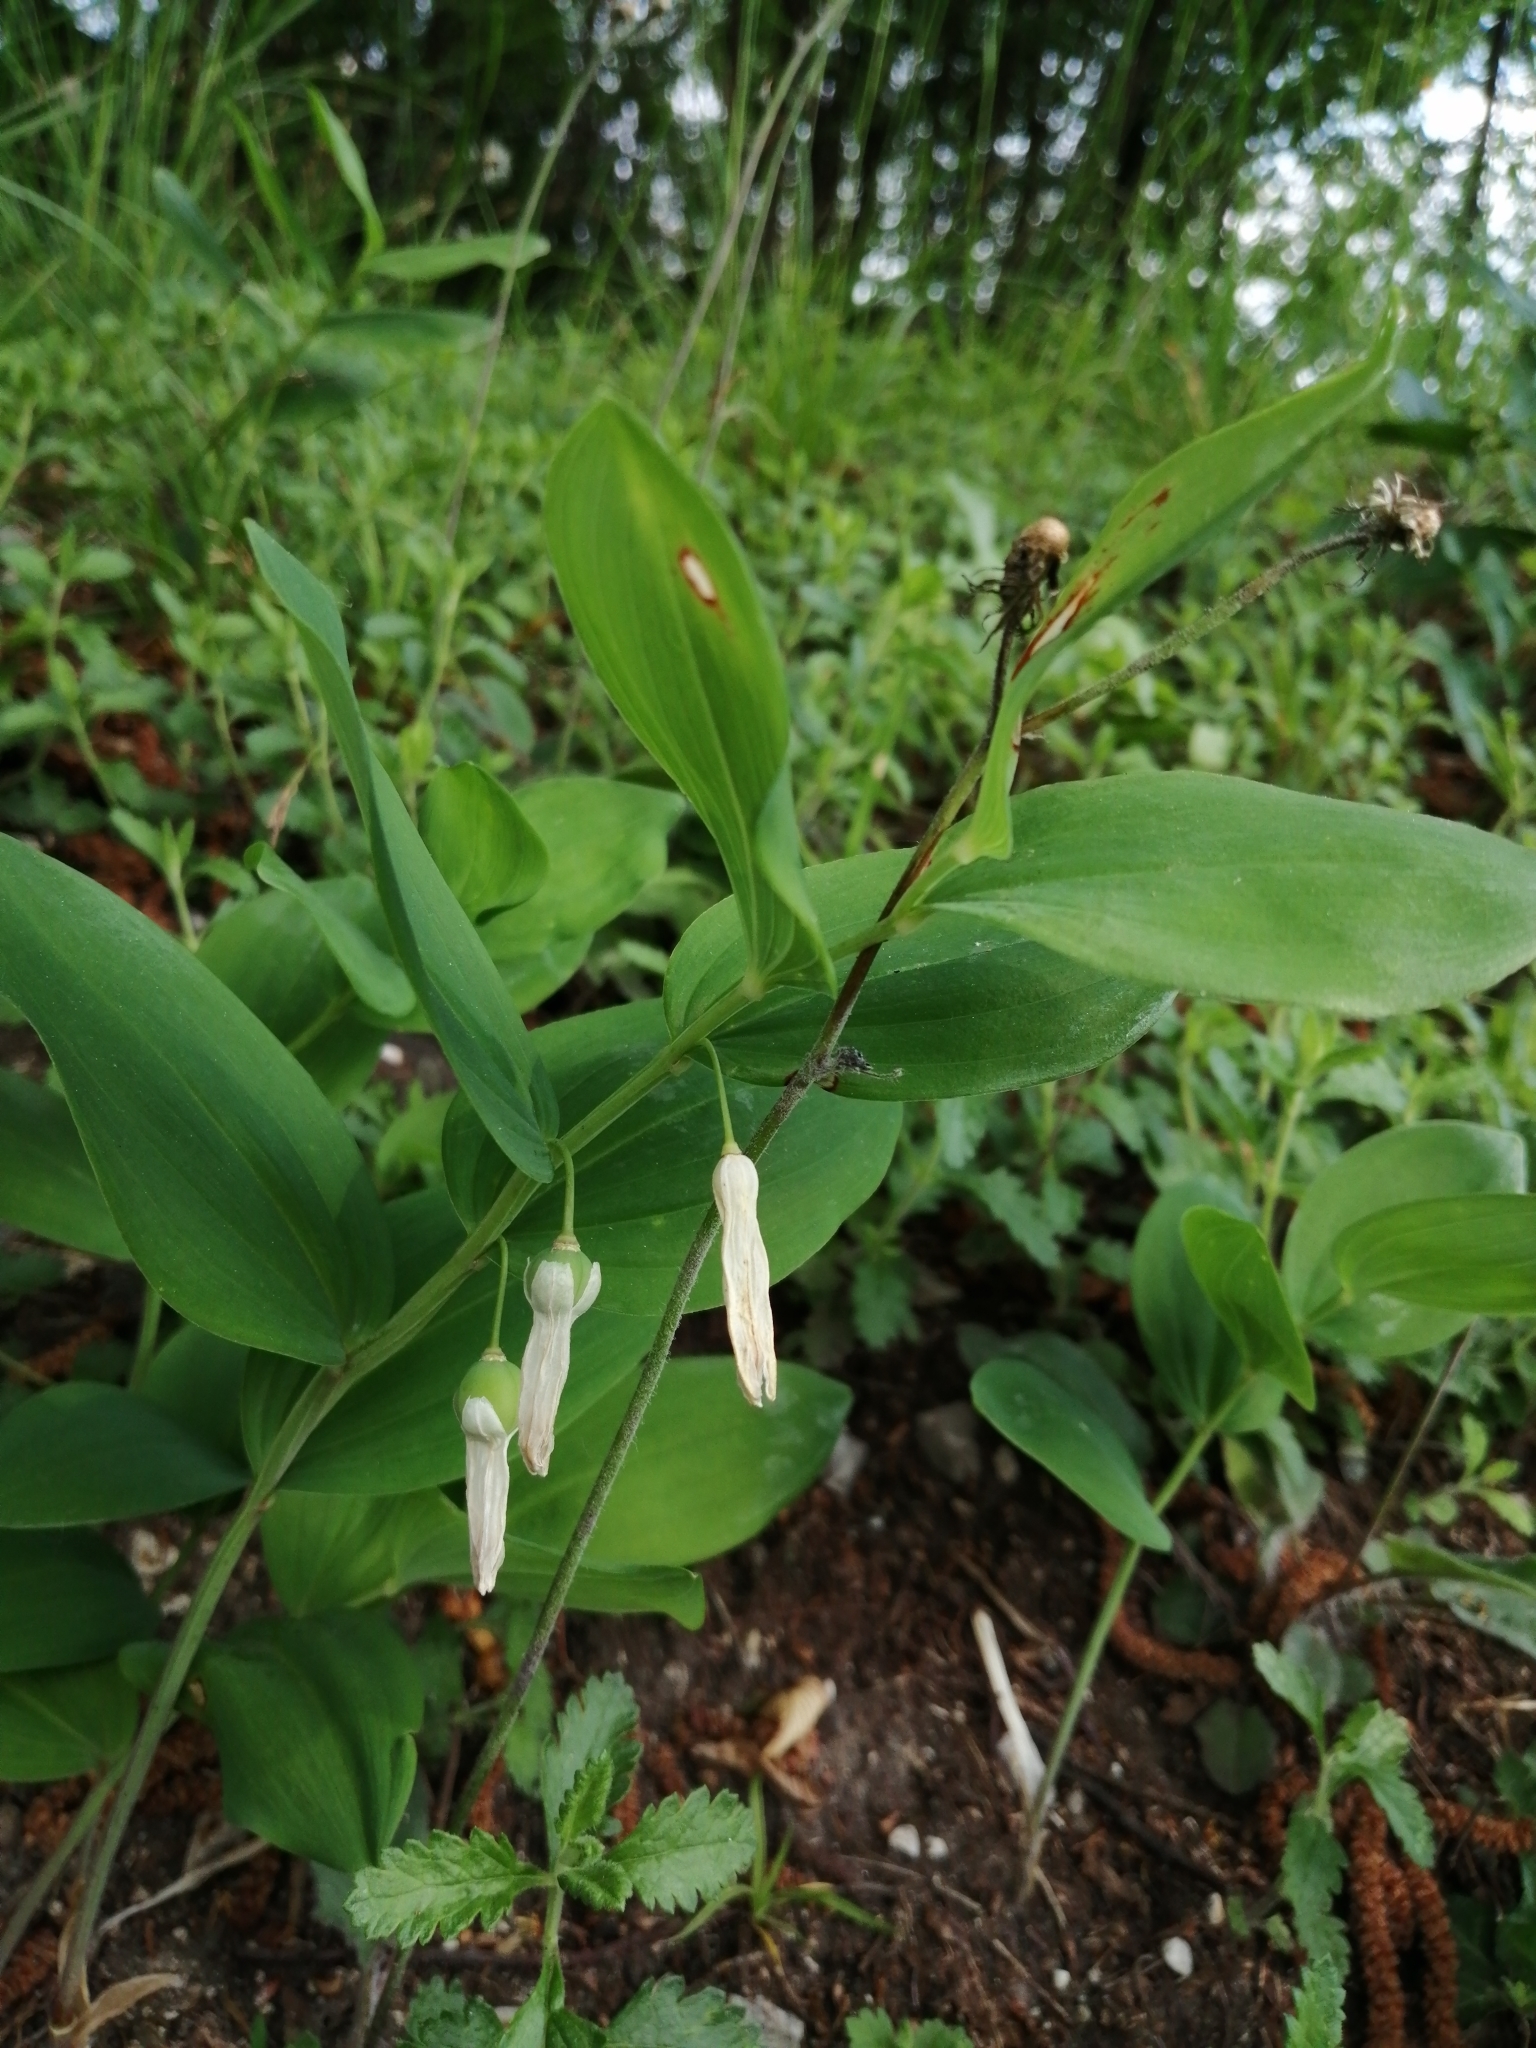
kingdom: Plantae
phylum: Tracheophyta
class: Liliopsida
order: Asparagales
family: Asparagaceae
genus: Polygonatum
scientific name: Polygonatum odoratum
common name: Angular solomon's-seal
